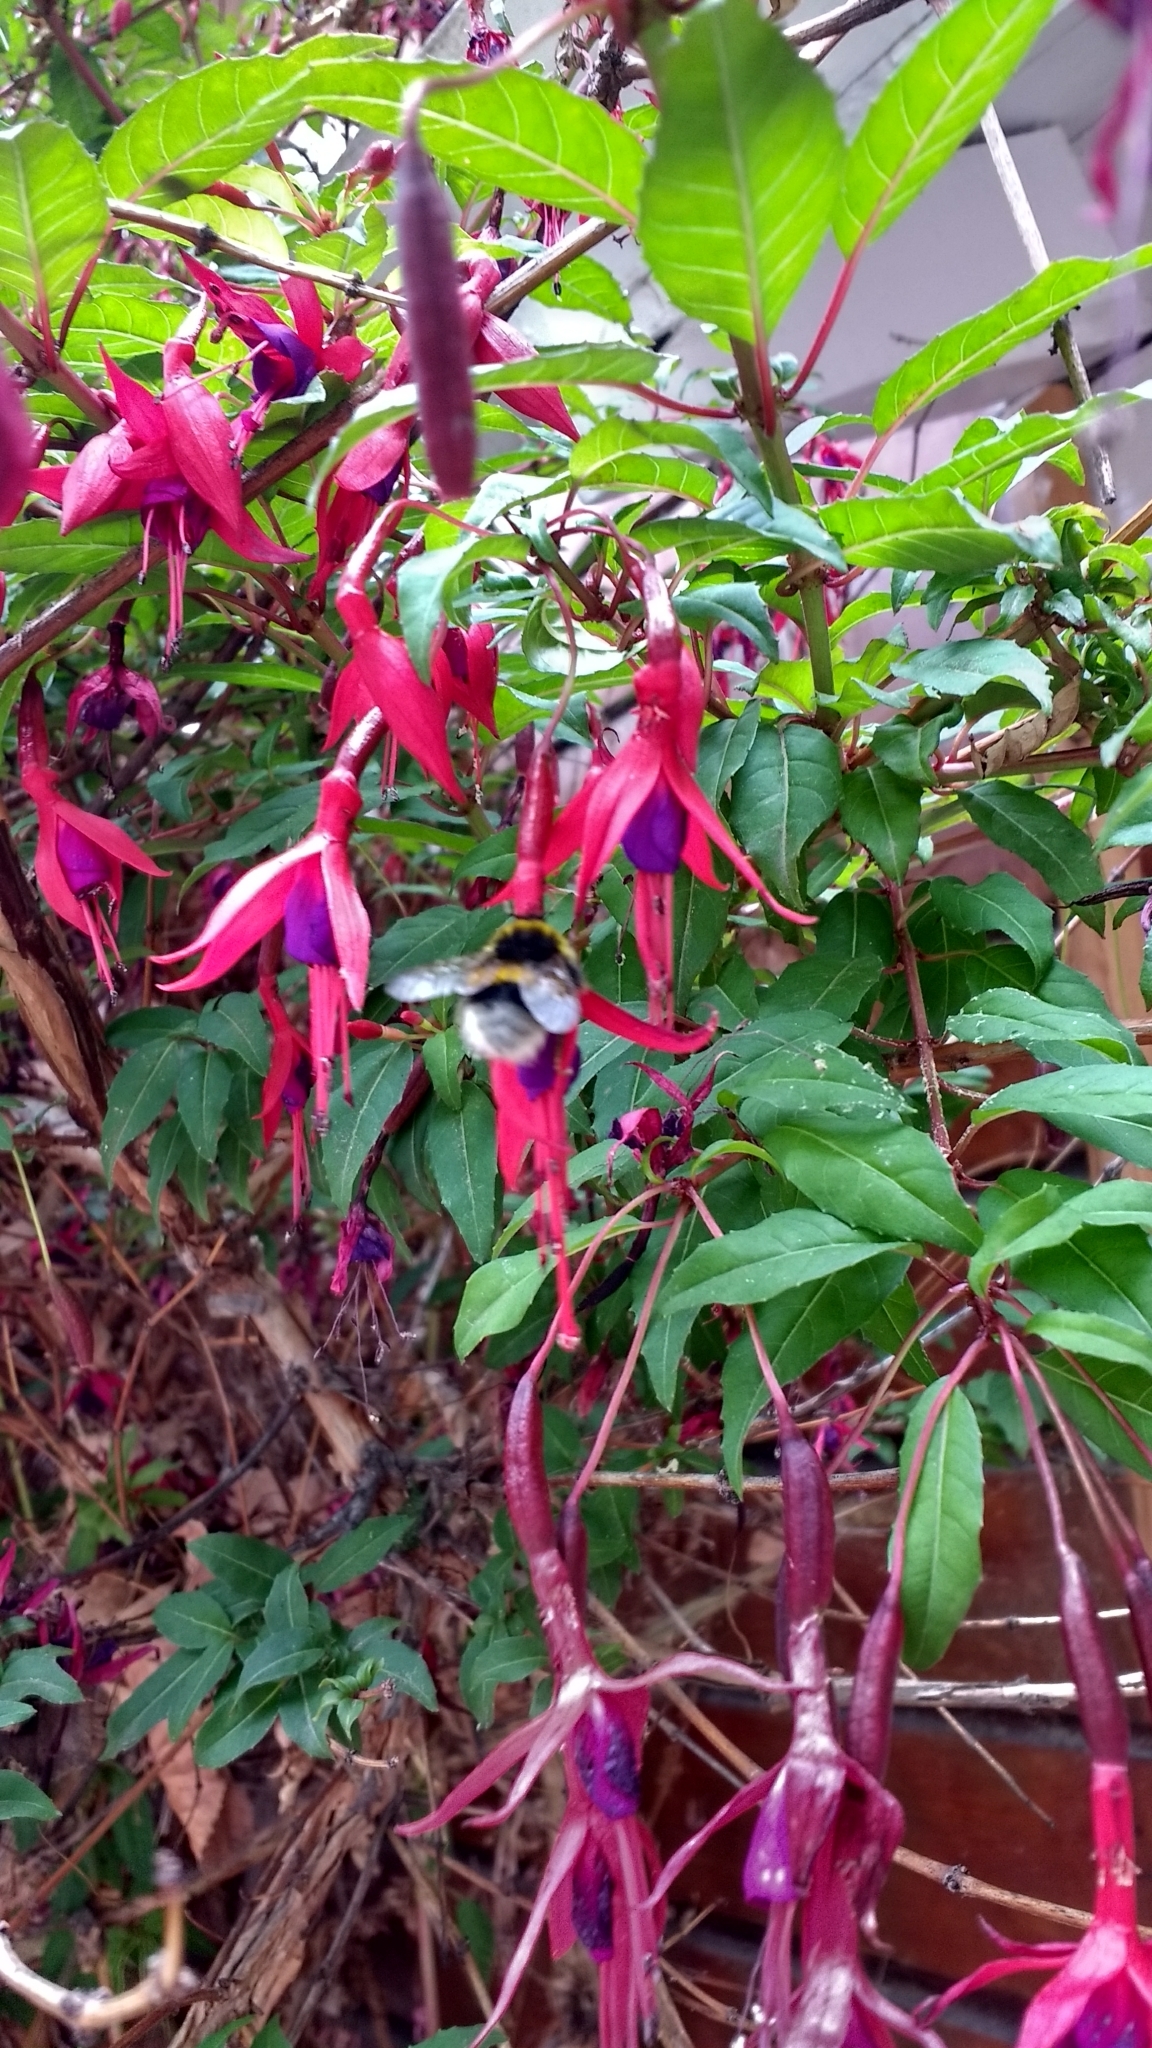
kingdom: Animalia
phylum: Arthropoda
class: Insecta
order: Hymenoptera
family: Apidae
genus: Bombus
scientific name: Bombus terrestris
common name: Buff-tailed bumblebee
